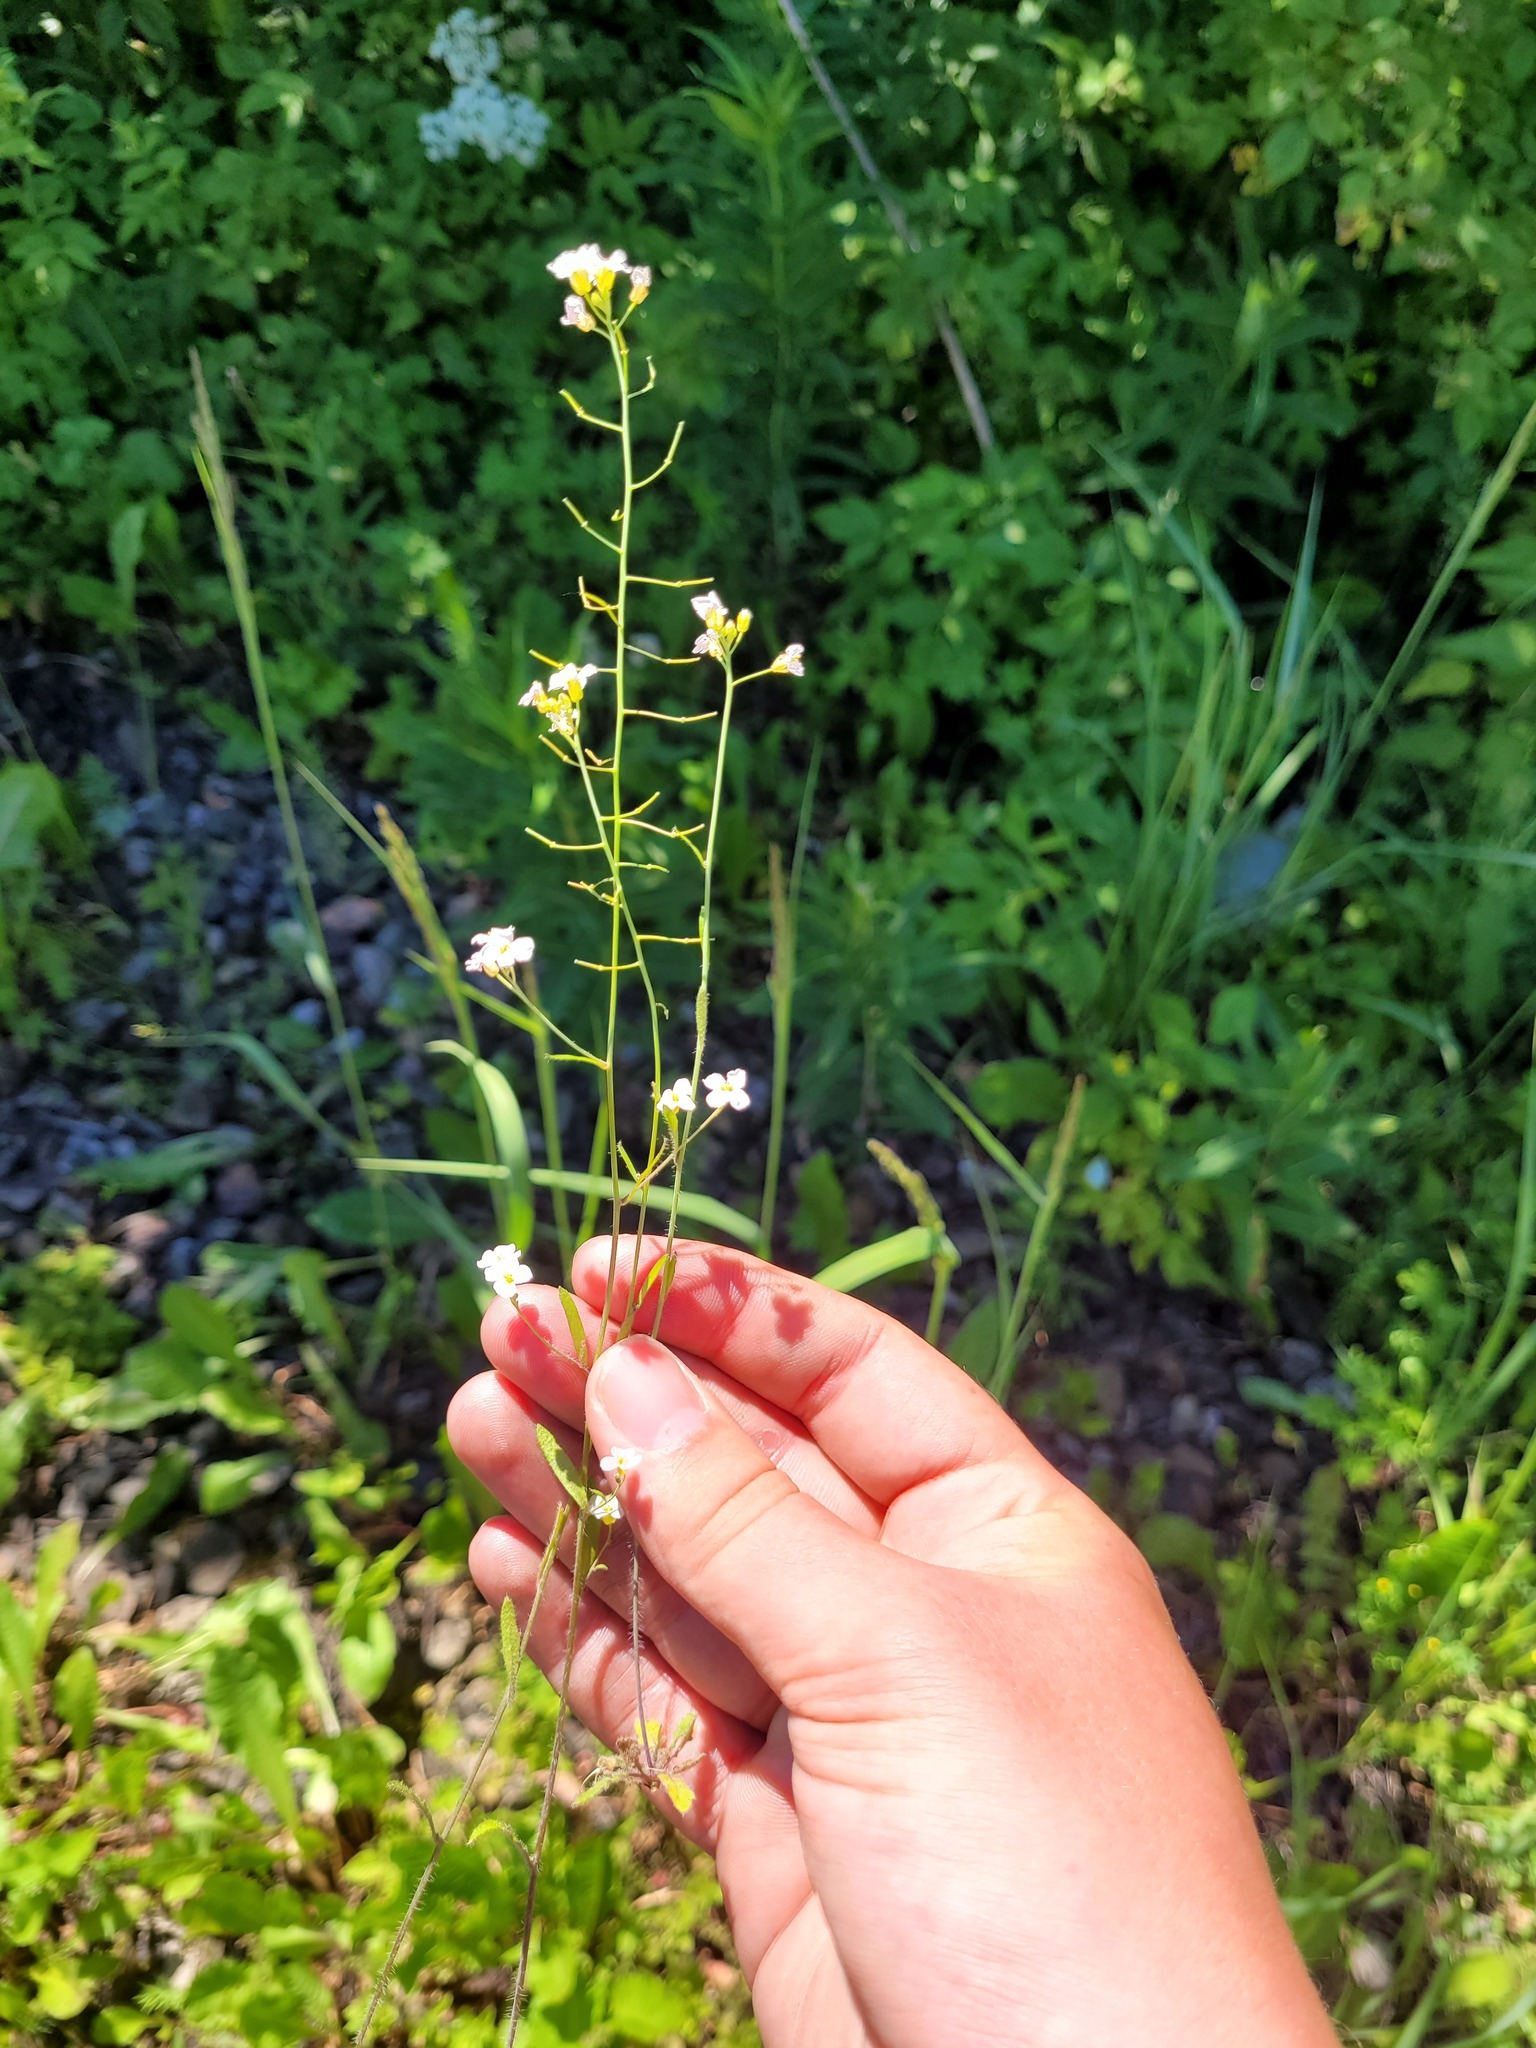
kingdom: Plantae
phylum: Tracheophyta
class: Magnoliopsida
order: Brassicales
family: Brassicaceae
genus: Arabidopsis
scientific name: Arabidopsis arenosa
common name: Sand rock-cress
